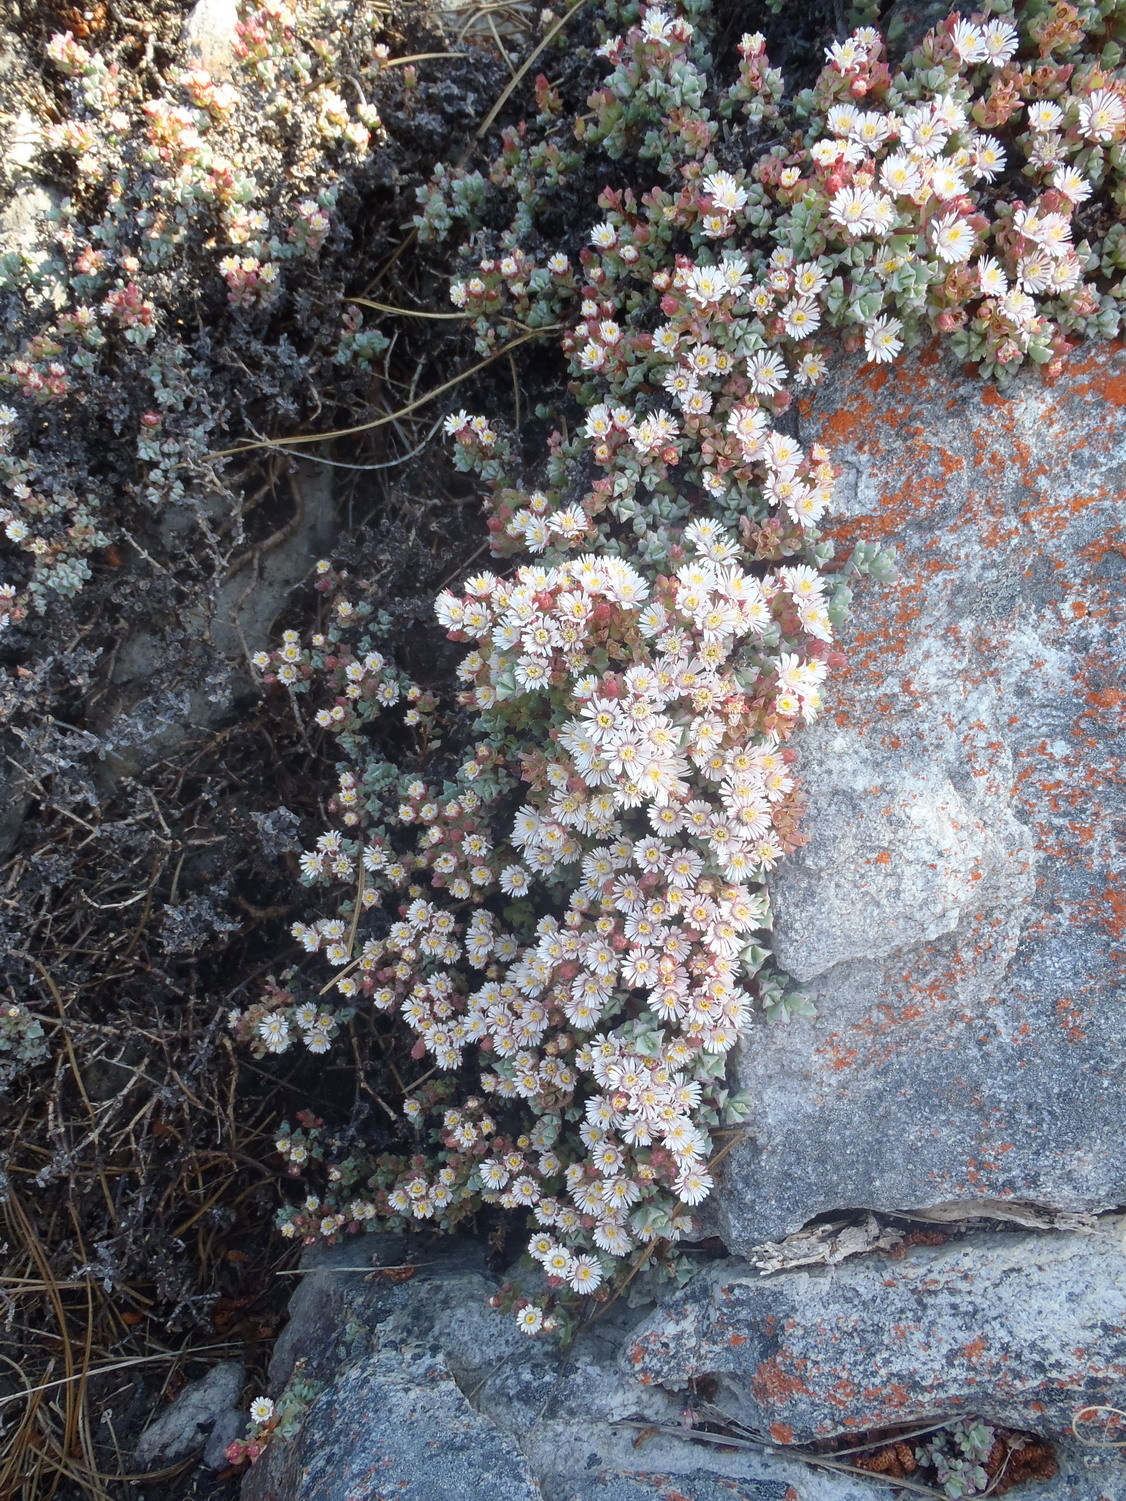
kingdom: Plantae
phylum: Tracheophyta
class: Magnoliopsida
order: Caryophyllales
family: Aizoaceae
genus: Oscularia
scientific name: Oscularia deltoides
